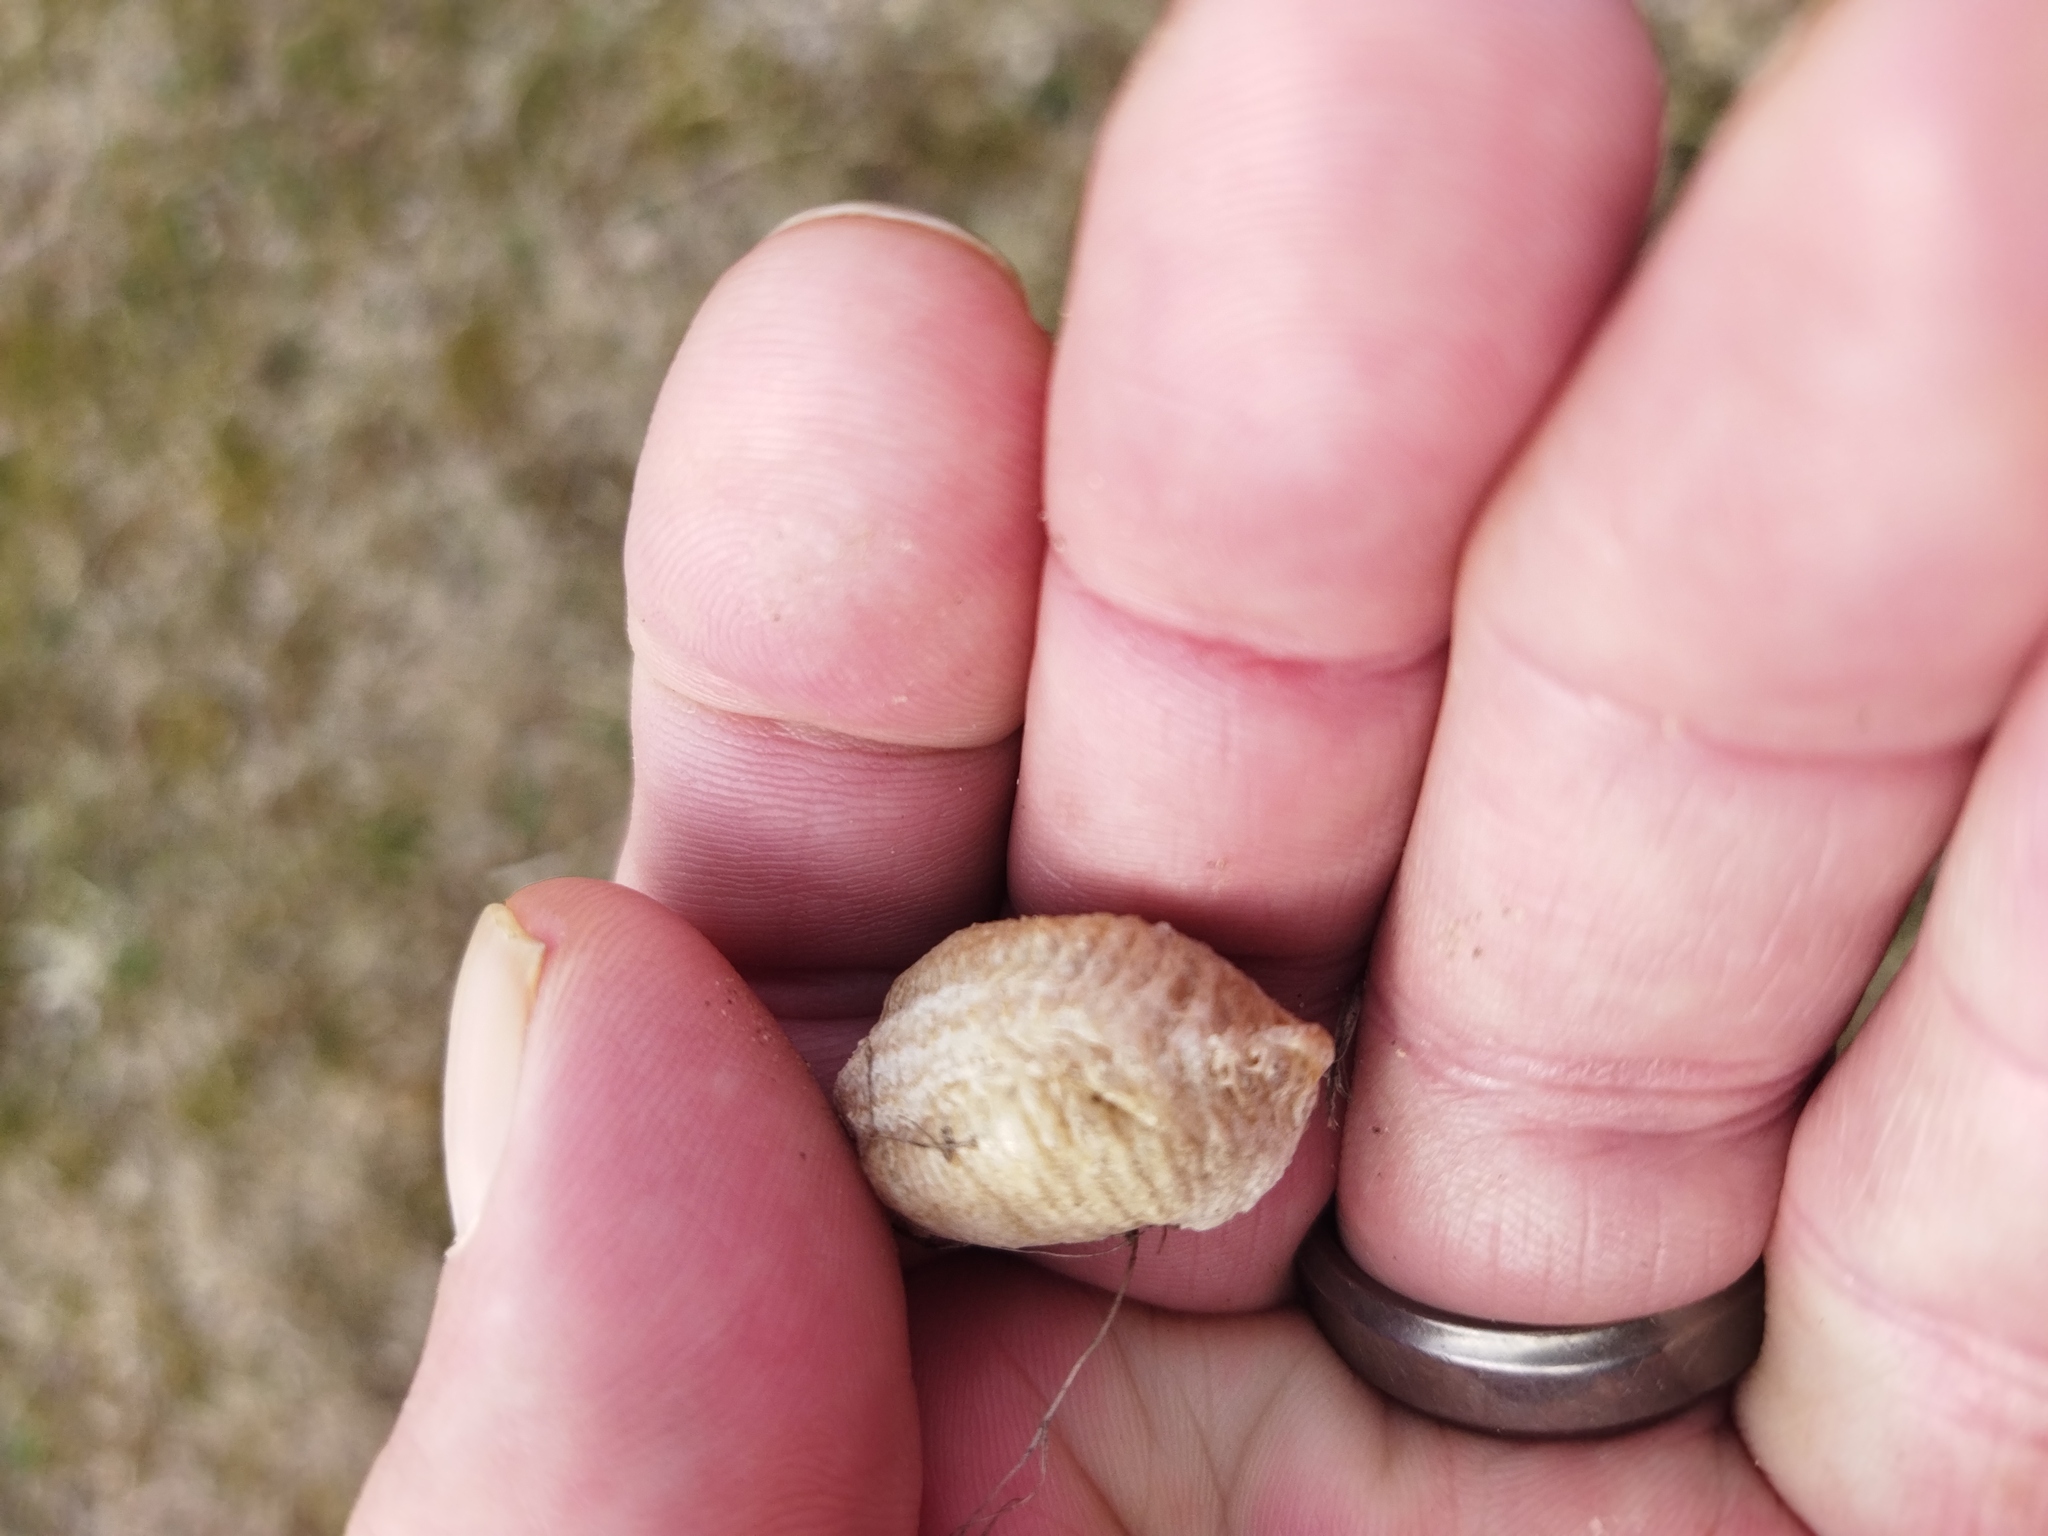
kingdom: Animalia
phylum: Arthropoda
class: Insecta
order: Mantodea
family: Mantidae
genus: Mantis
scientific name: Mantis religiosa
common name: Praying mantis
